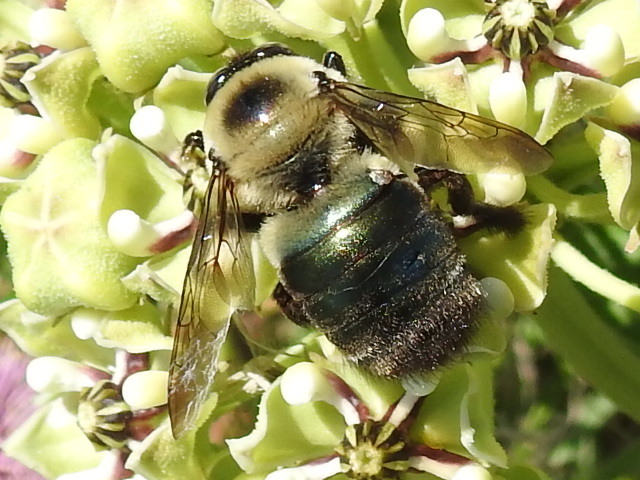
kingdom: Animalia
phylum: Arthropoda
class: Insecta
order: Hymenoptera
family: Apidae
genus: Xylocopa
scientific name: Xylocopa virginica
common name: Carpenter bee
